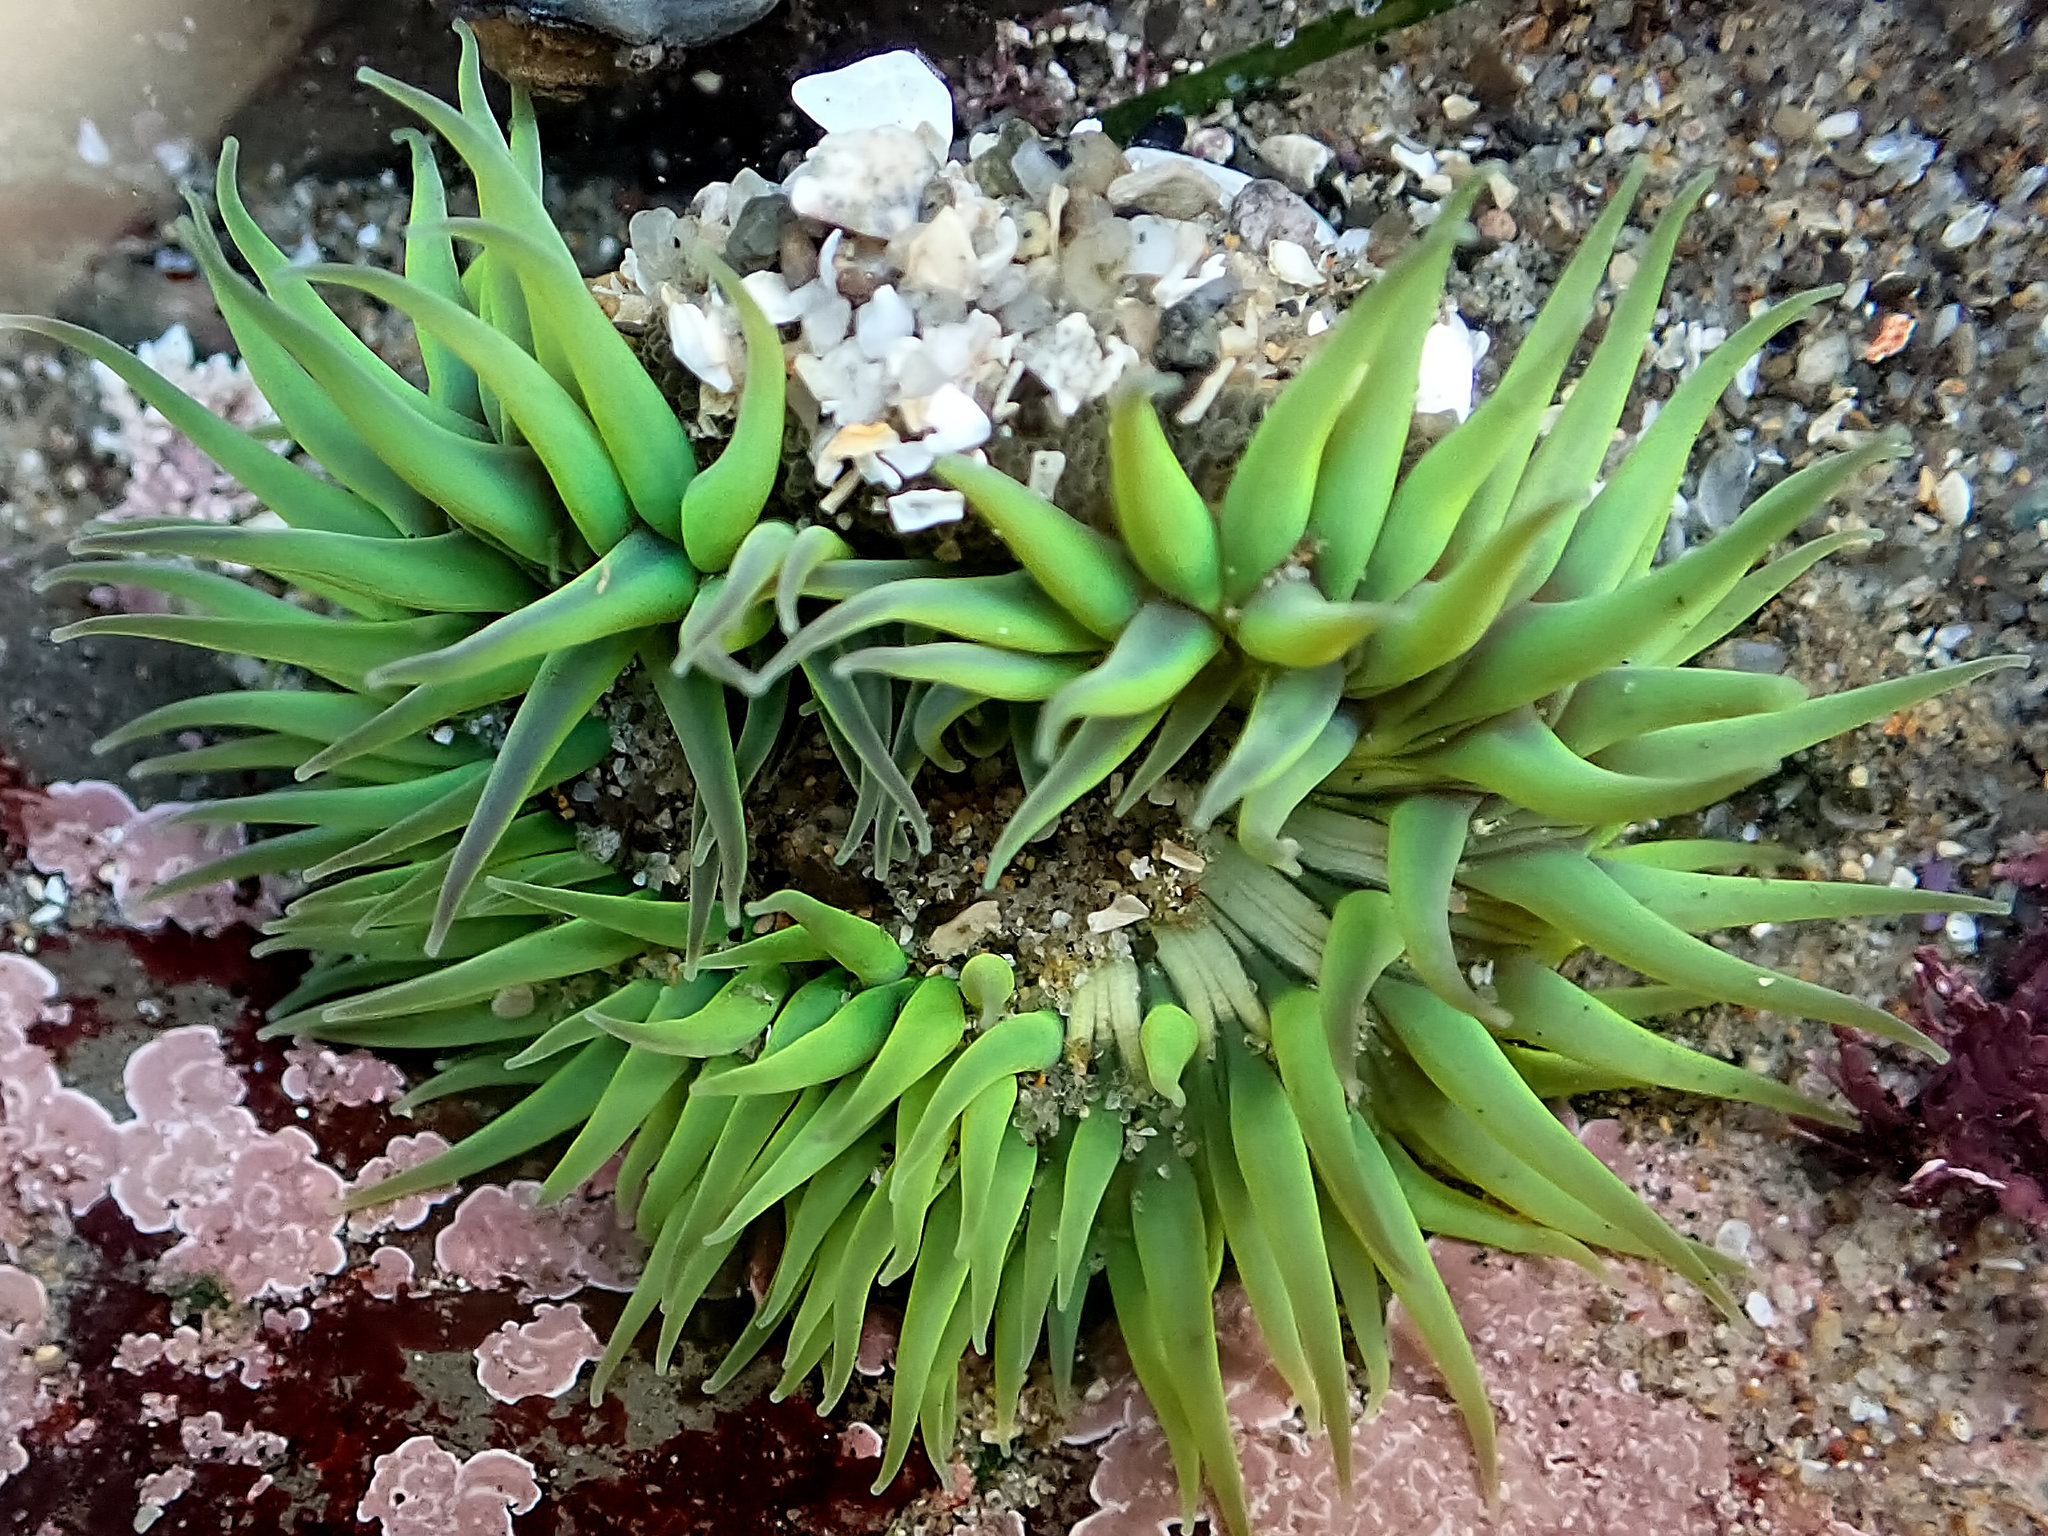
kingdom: Animalia
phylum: Cnidaria
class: Anthozoa
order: Actiniaria
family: Actiniidae
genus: Anthopleura
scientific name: Anthopleura sola
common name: Sun anemone
